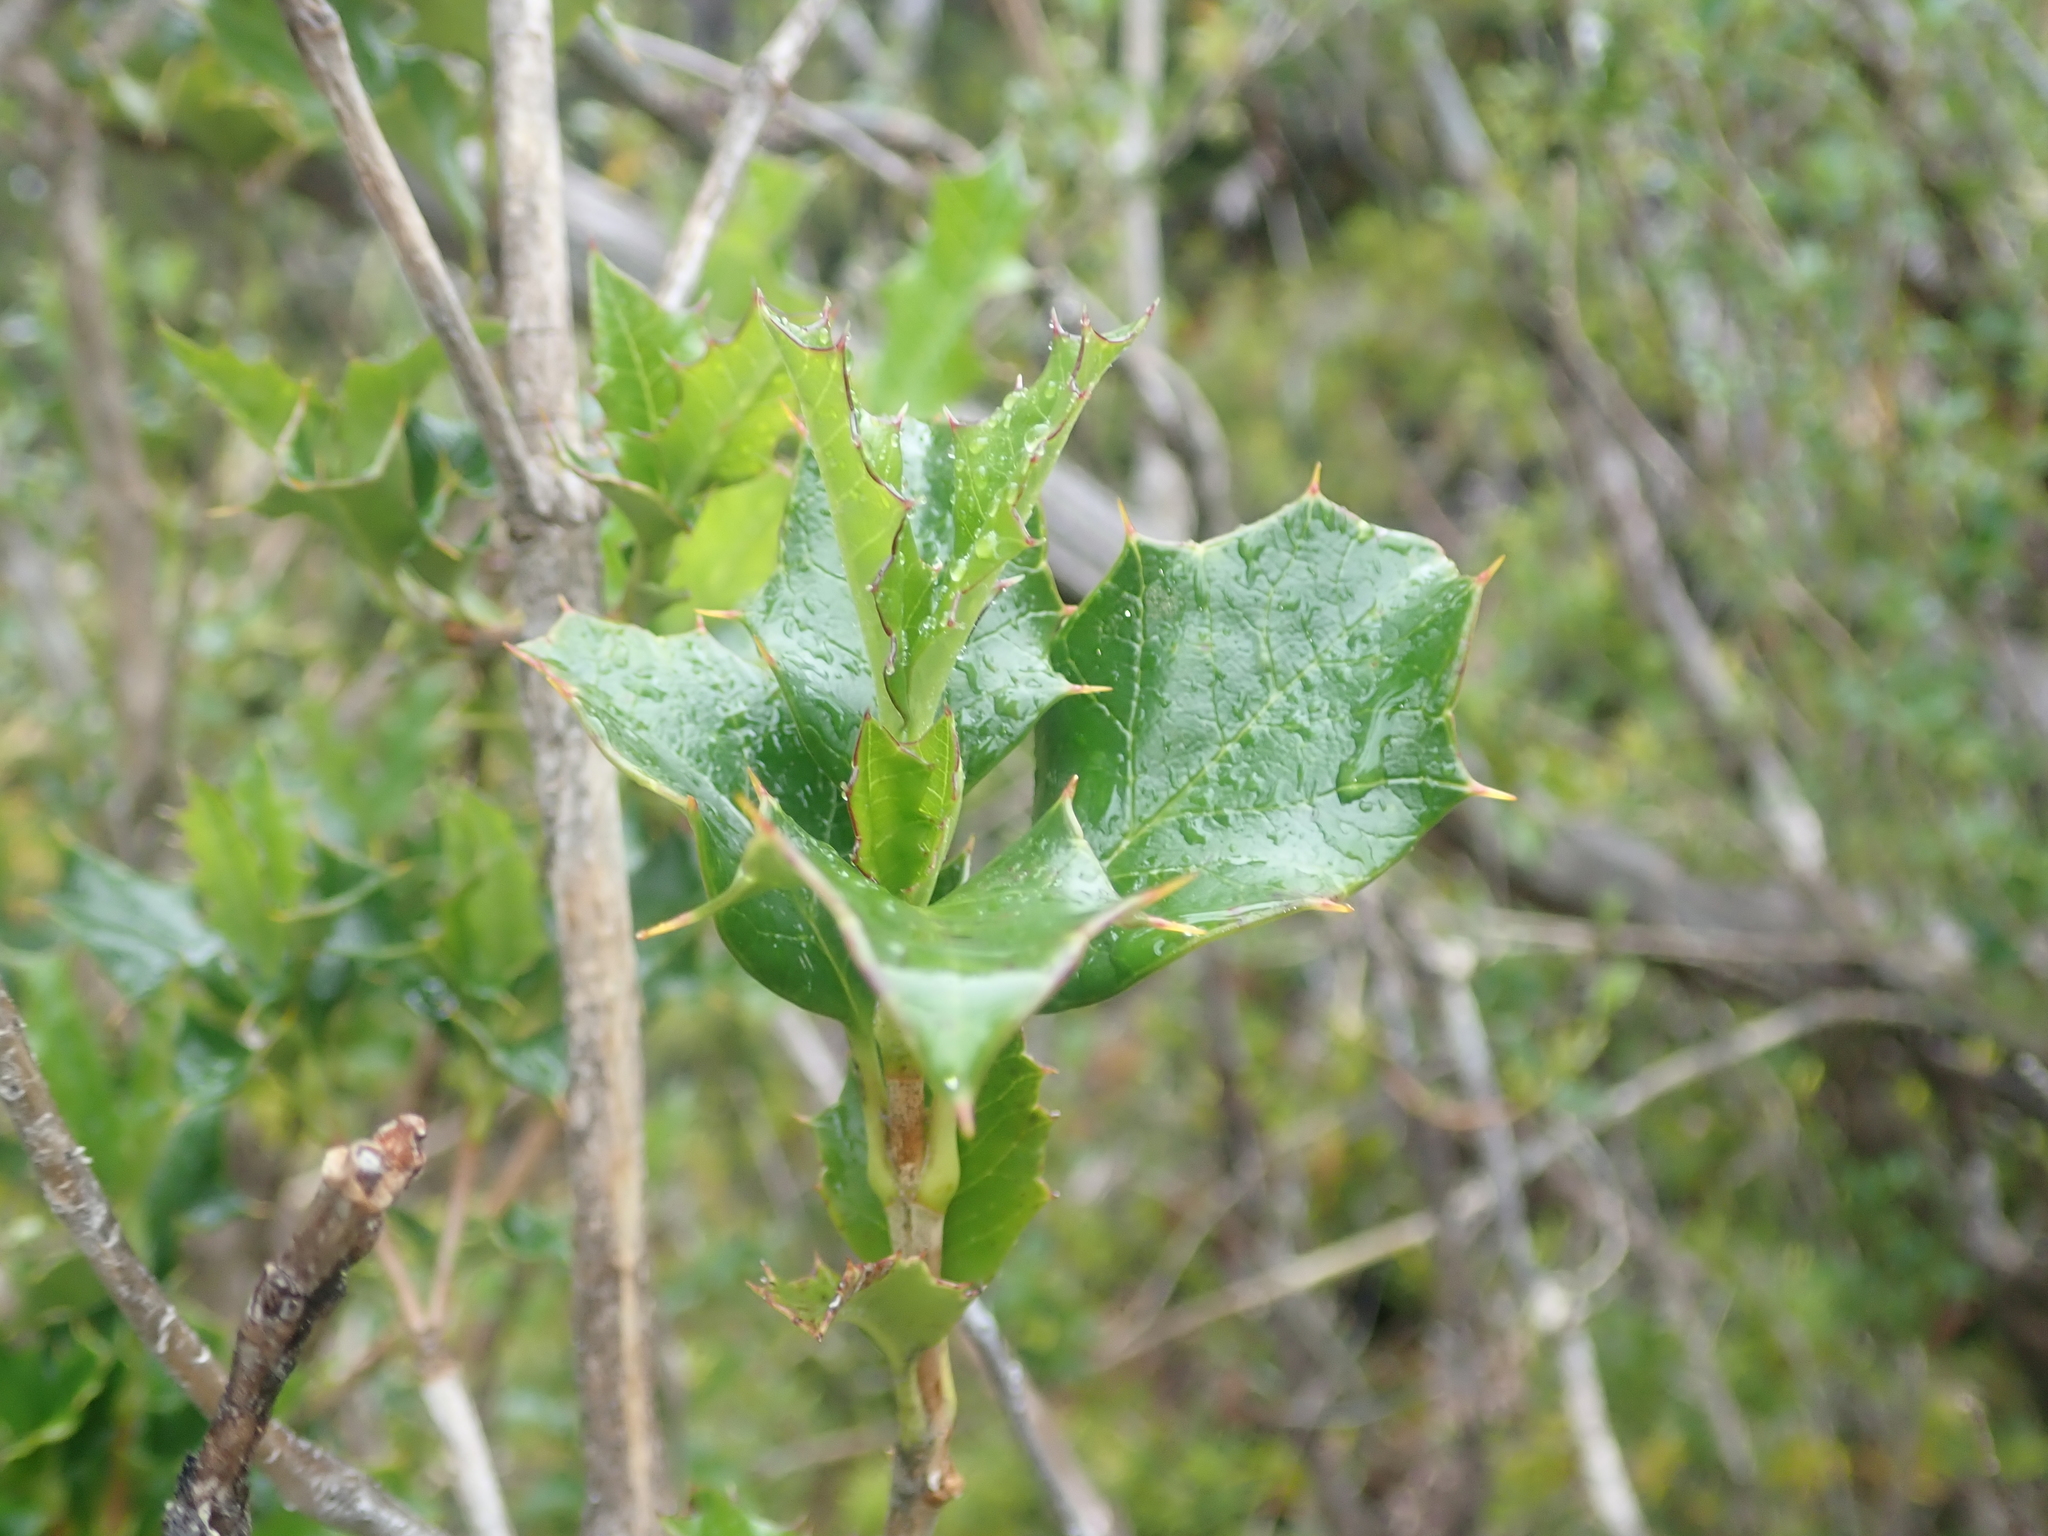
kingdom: Plantae
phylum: Tracheophyta
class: Magnoliopsida
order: Bruniales
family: Columelliaceae
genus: Desfontainia
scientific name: Desfontainia fulgens
